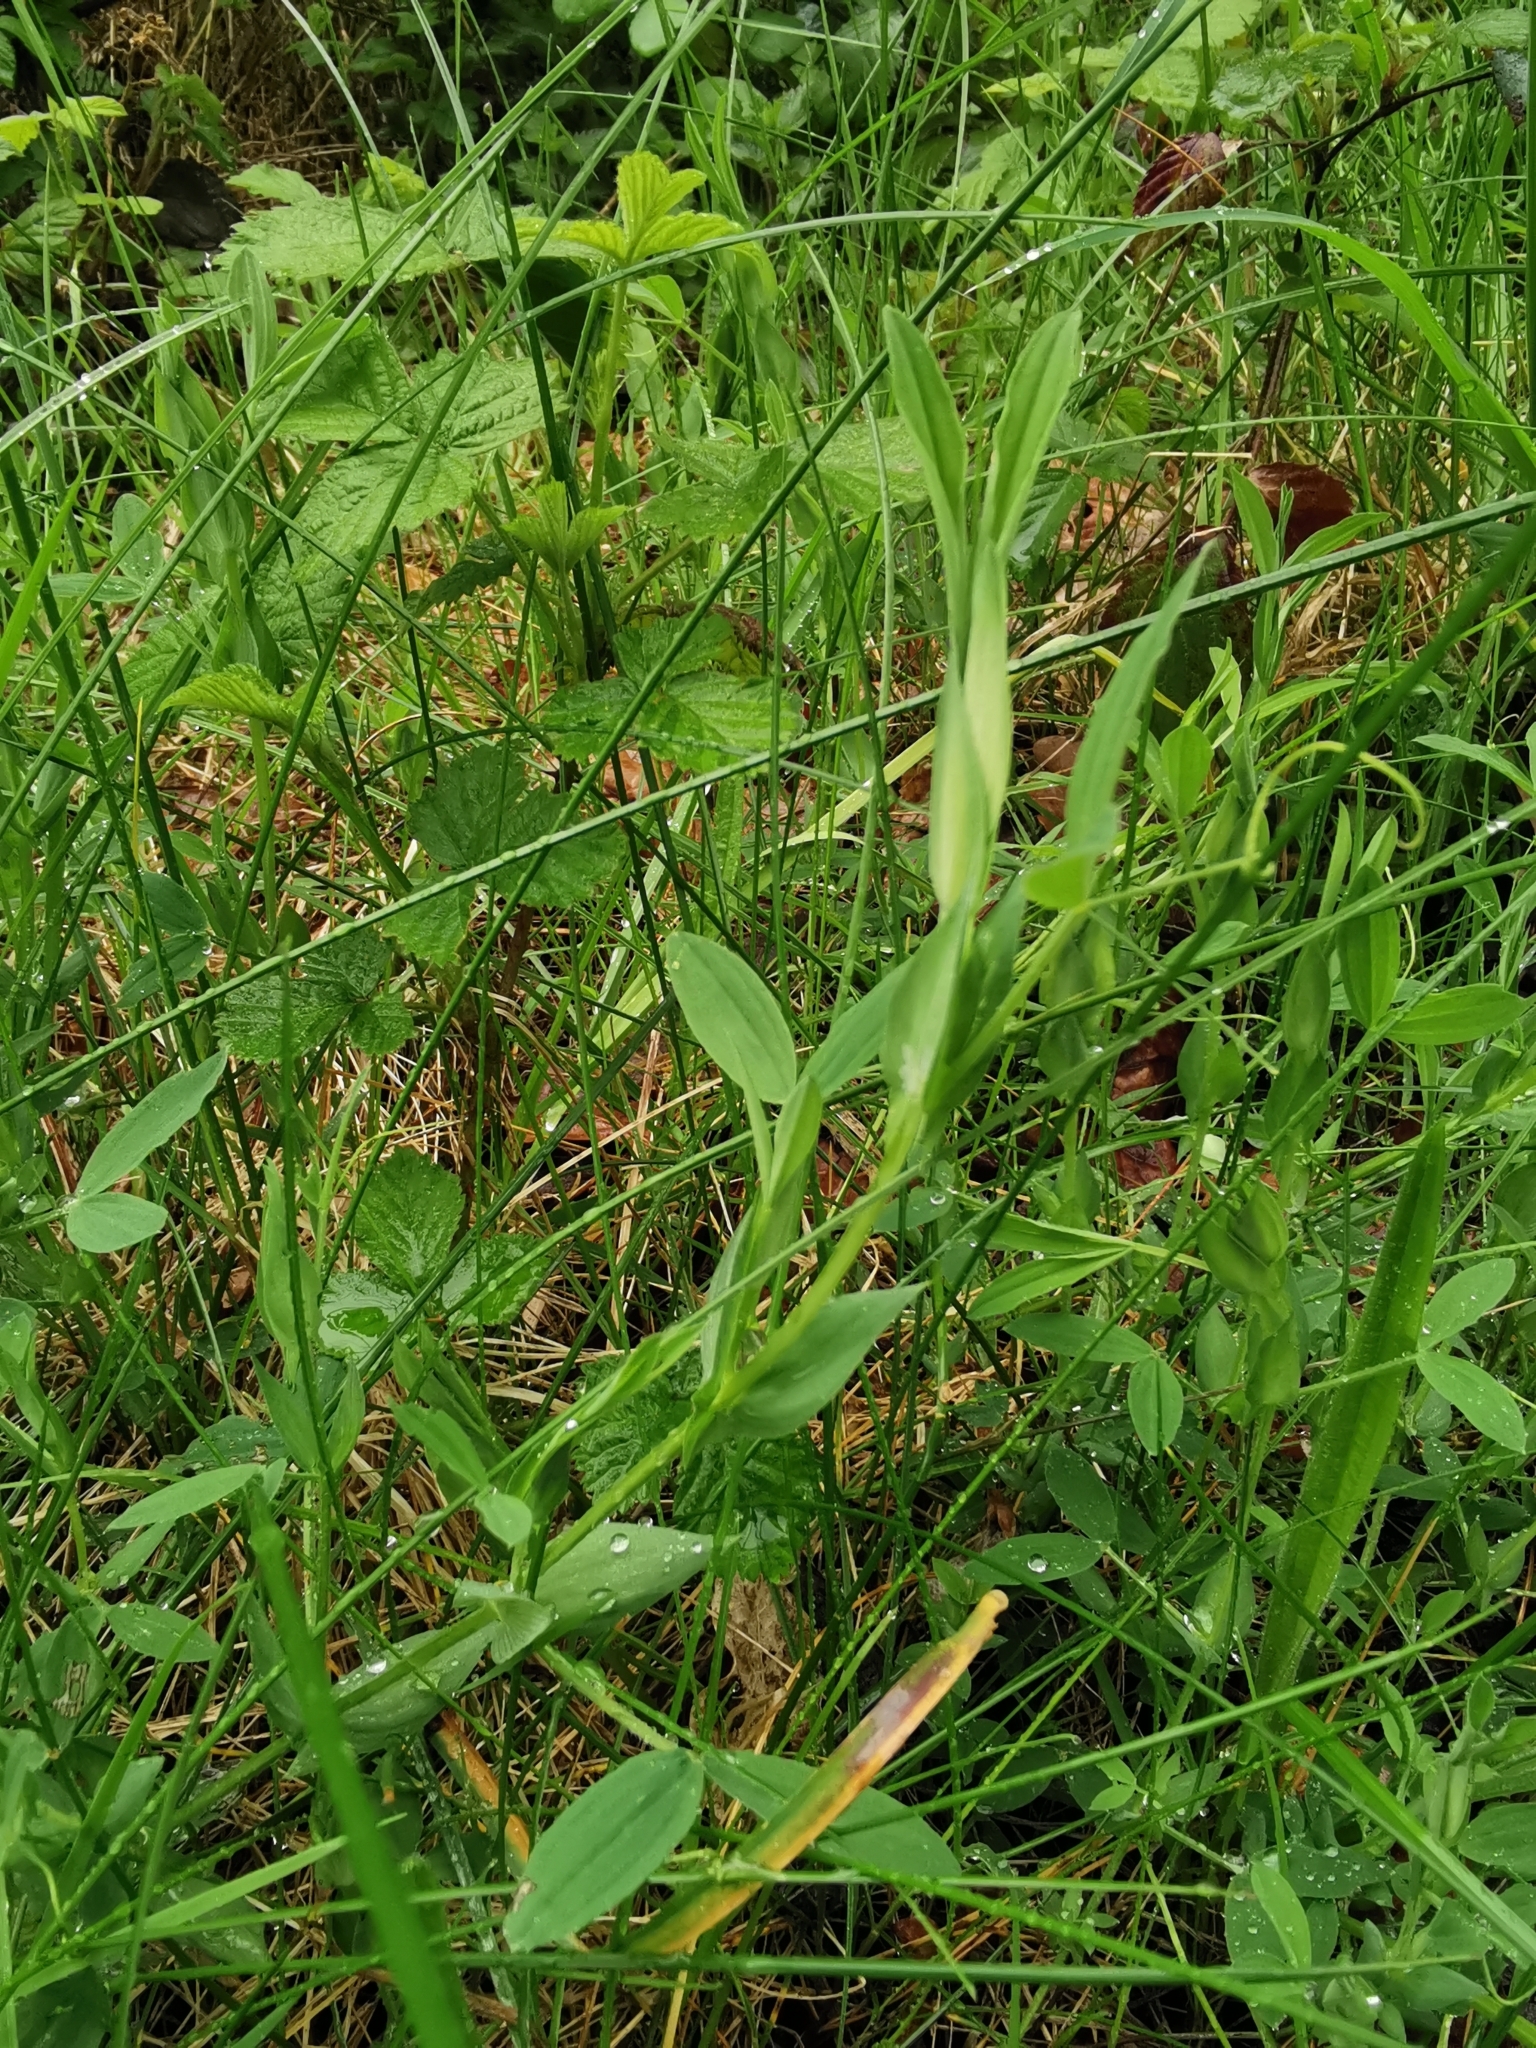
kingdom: Plantae
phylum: Tracheophyta
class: Magnoliopsida
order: Fabales
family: Fabaceae
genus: Lathyrus
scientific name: Lathyrus pratensis
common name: Meadow vetchling
